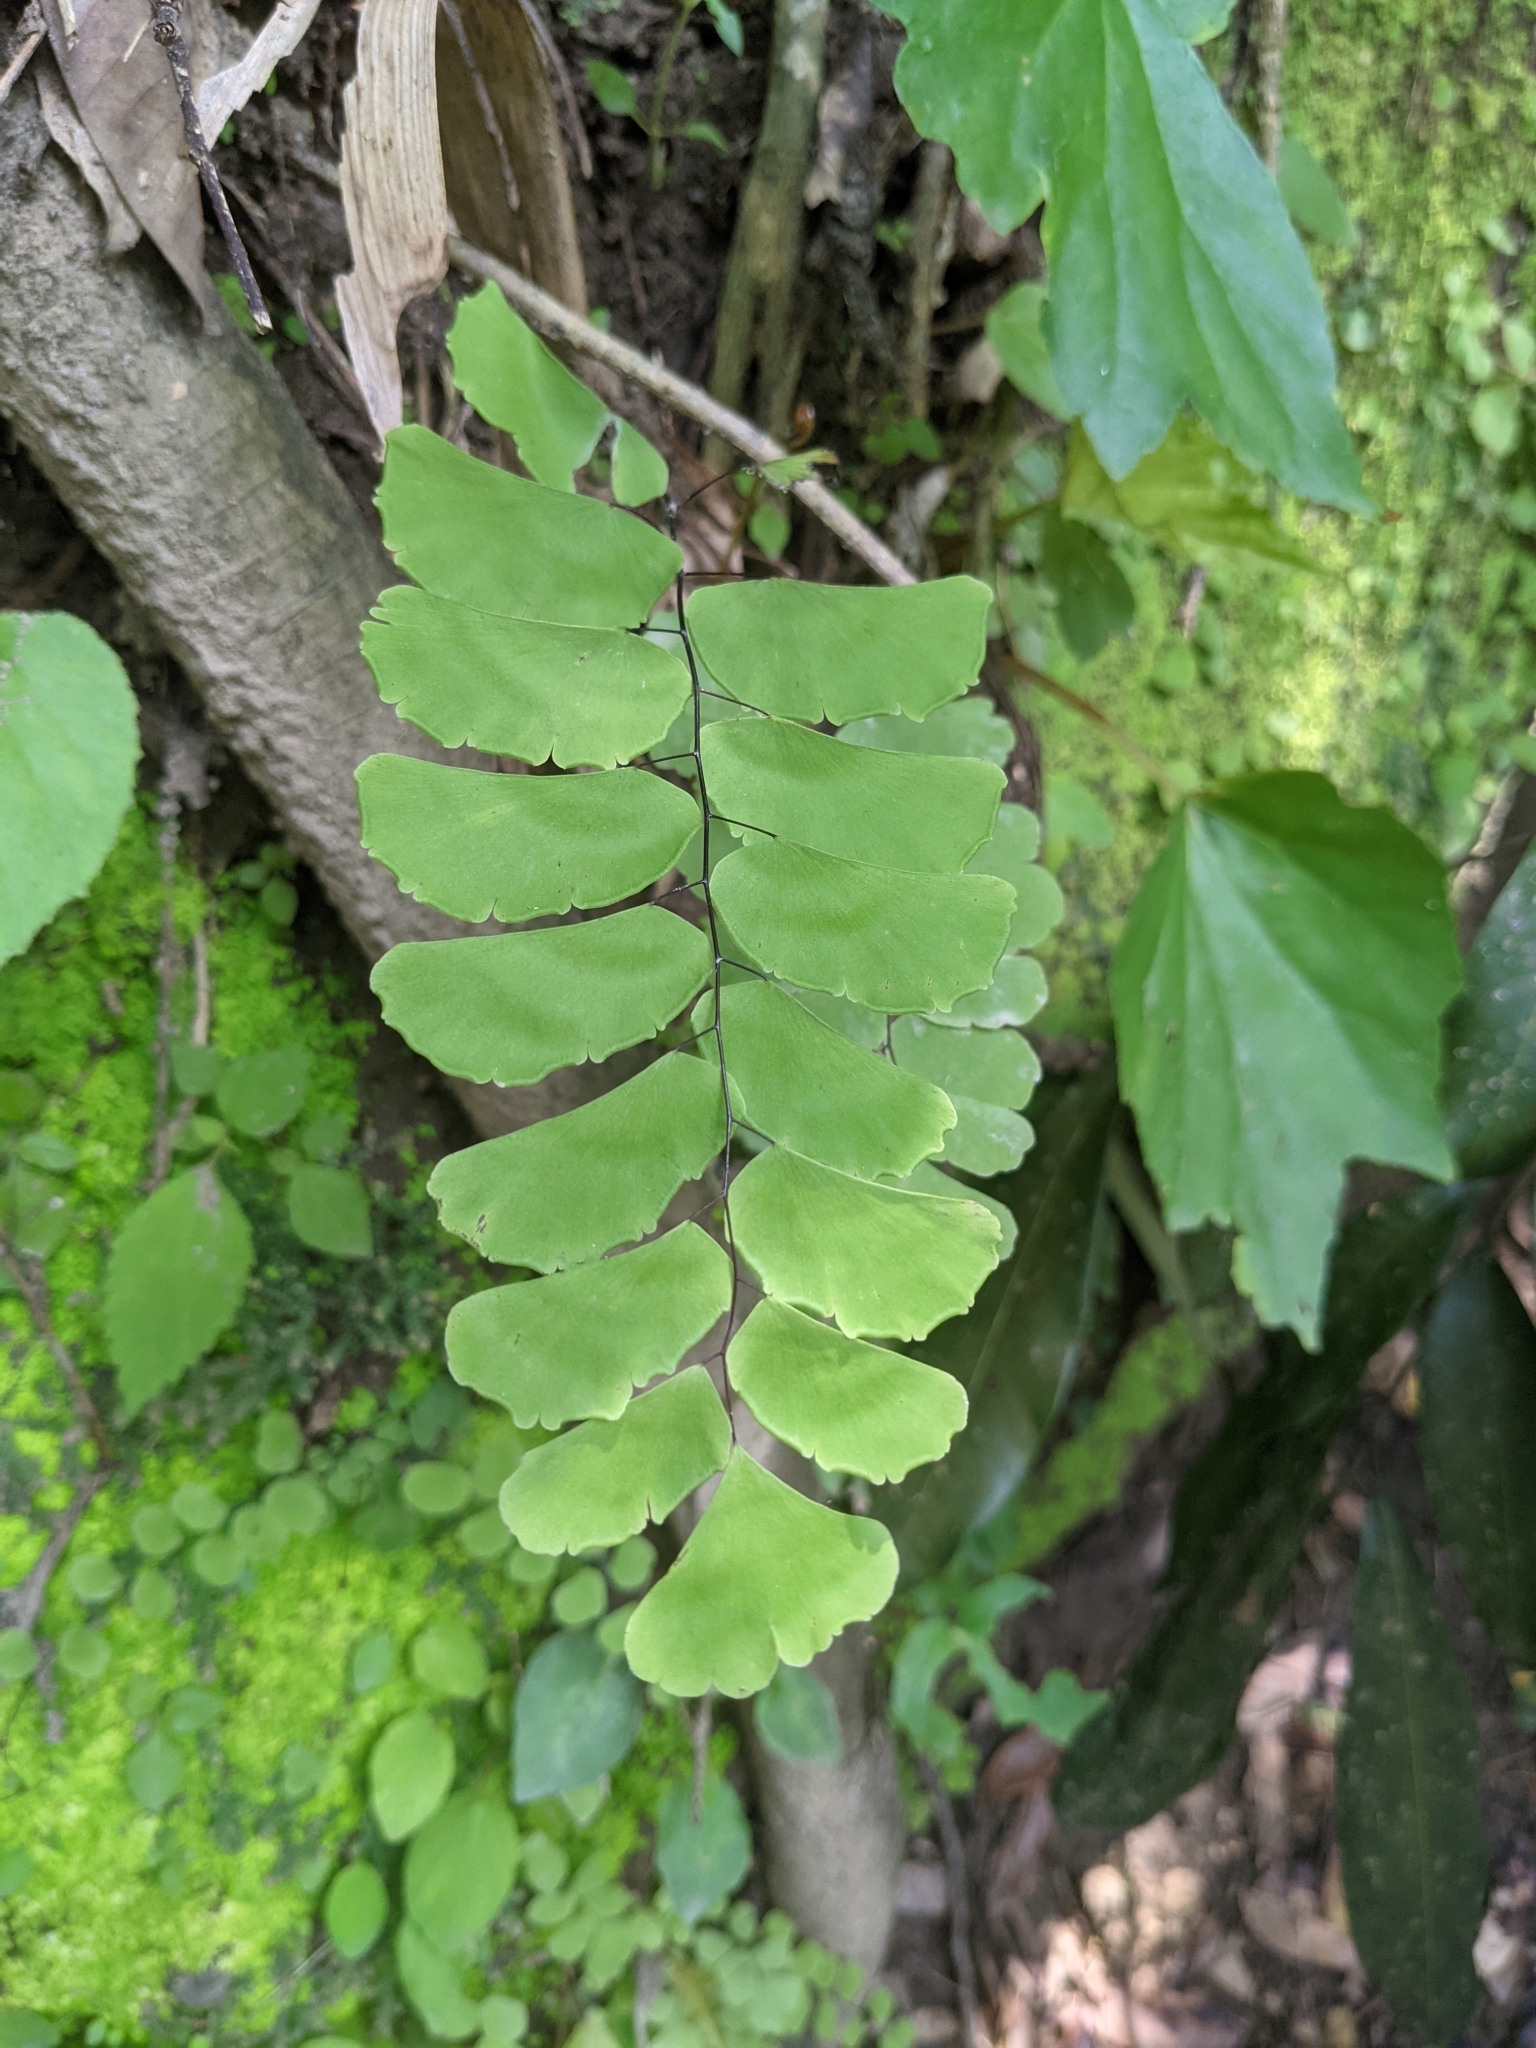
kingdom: Plantae
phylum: Tracheophyta
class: Polypodiopsida
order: Polypodiales
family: Pteridaceae
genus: Adiantum
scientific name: Adiantum philippense
